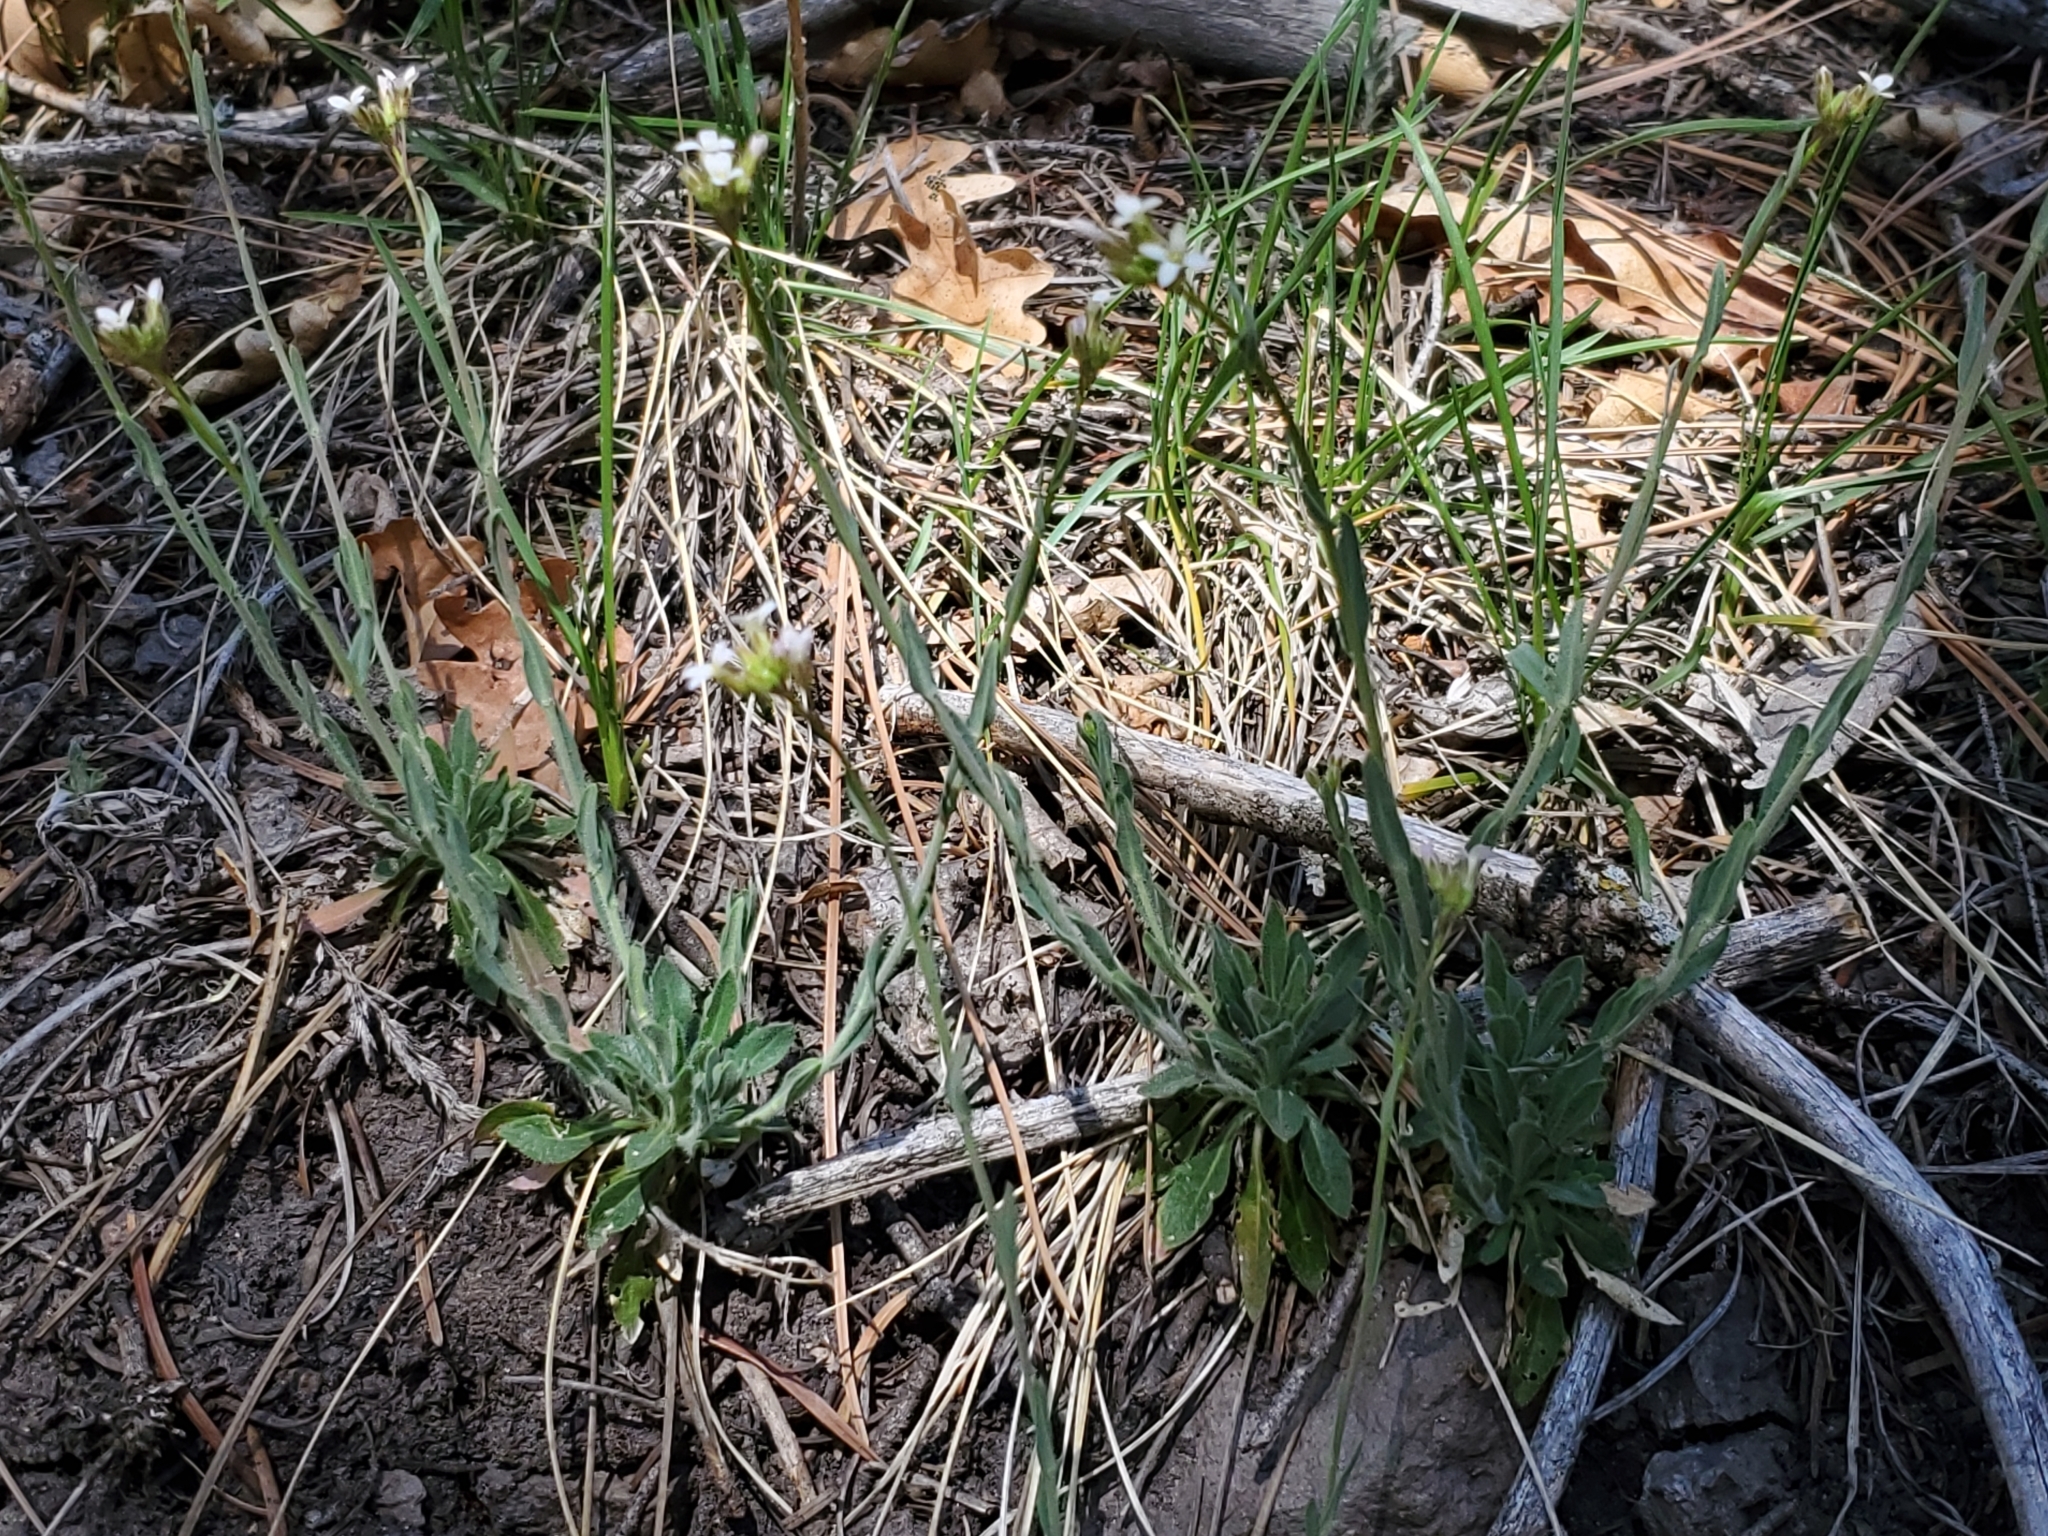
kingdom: Plantae
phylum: Tracheophyta
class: Magnoliopsida
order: Brassicales
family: Brassicaceae
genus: Boechera
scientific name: Boechera fendleri
